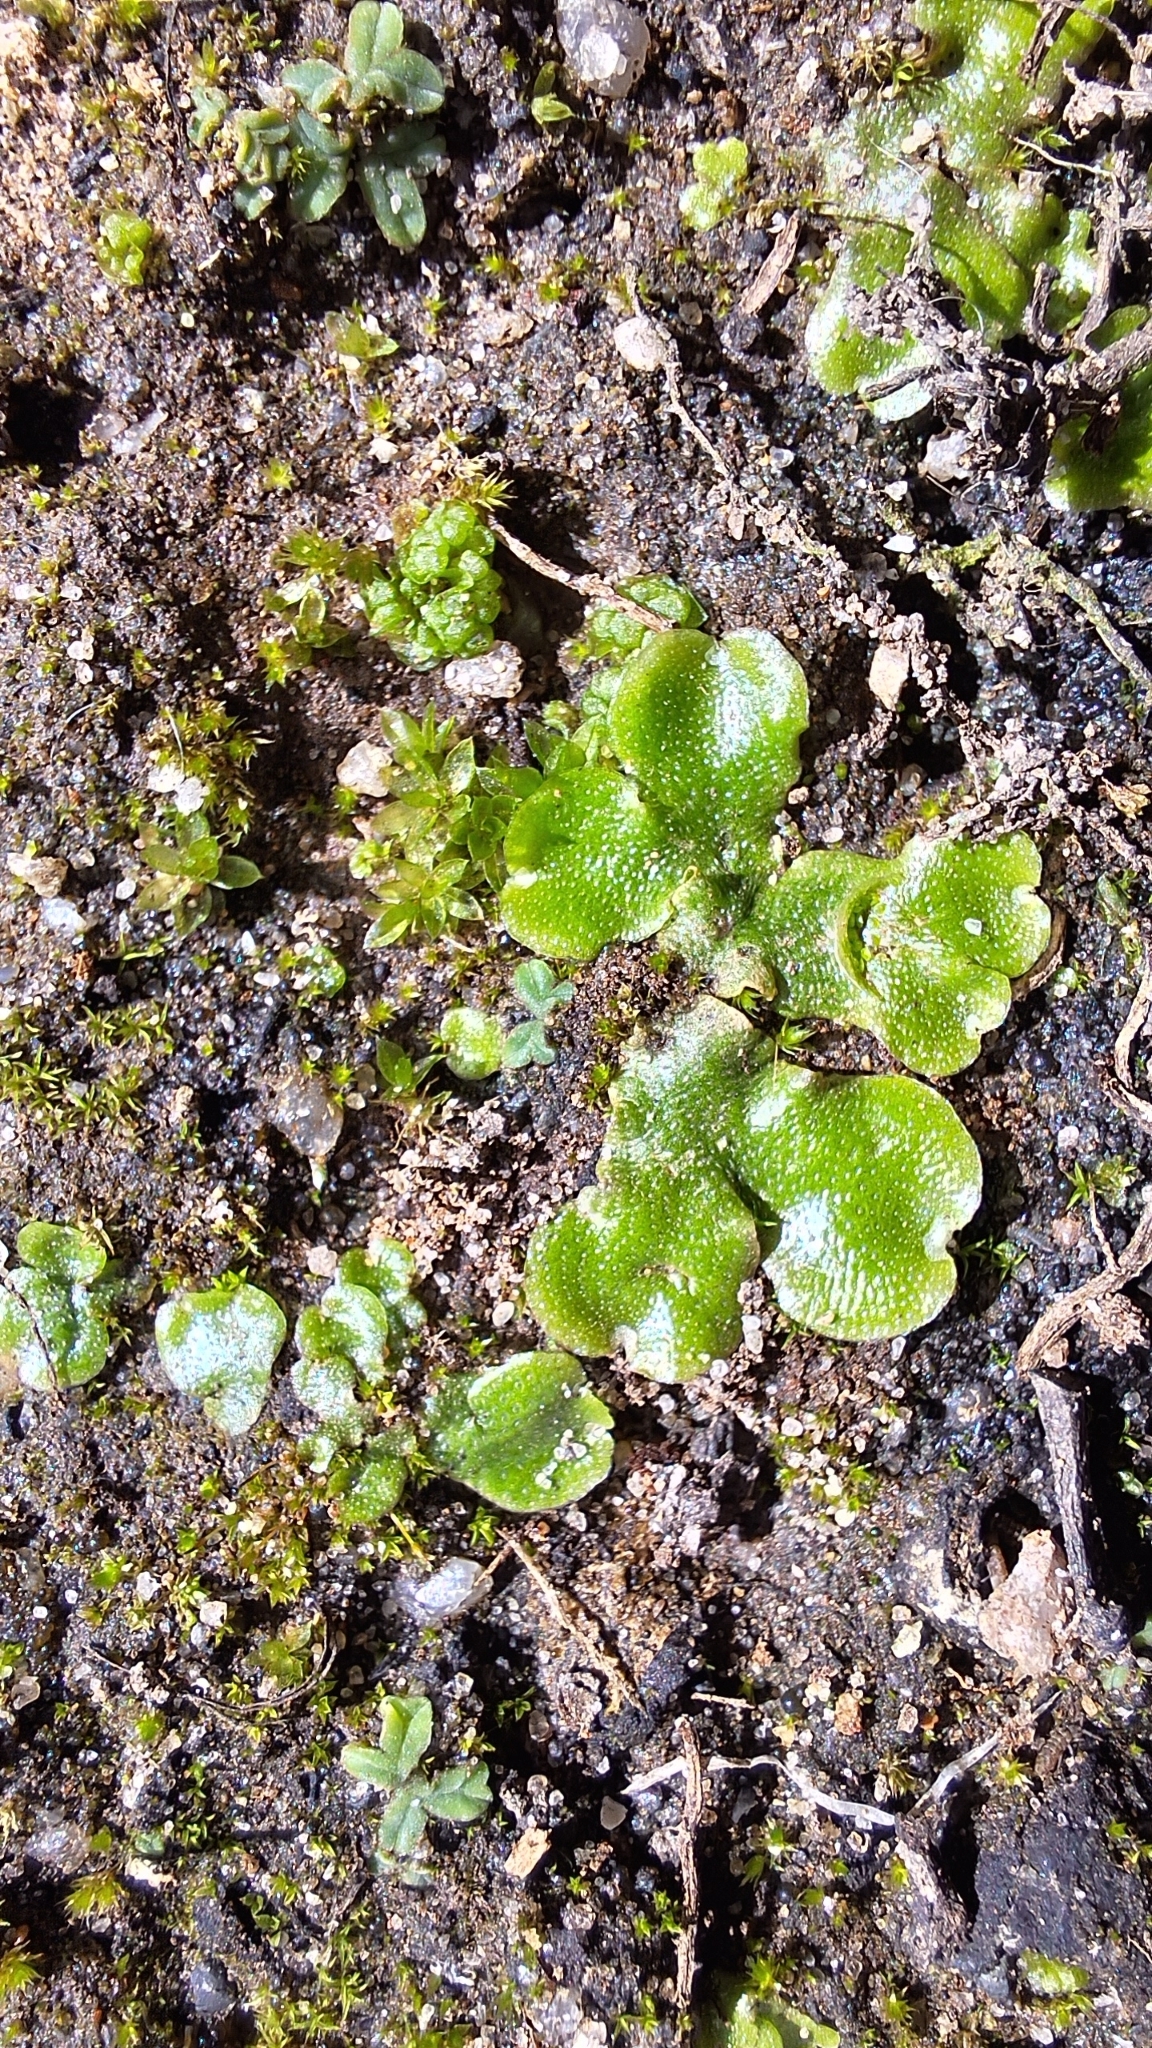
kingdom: Plantae
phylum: Marchantiophyta
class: Marchantiopsida
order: Lunulariales
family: Lunulariaceae
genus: Lunularia
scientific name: Lunularia cruciata
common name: Crescent-cup liverwort
